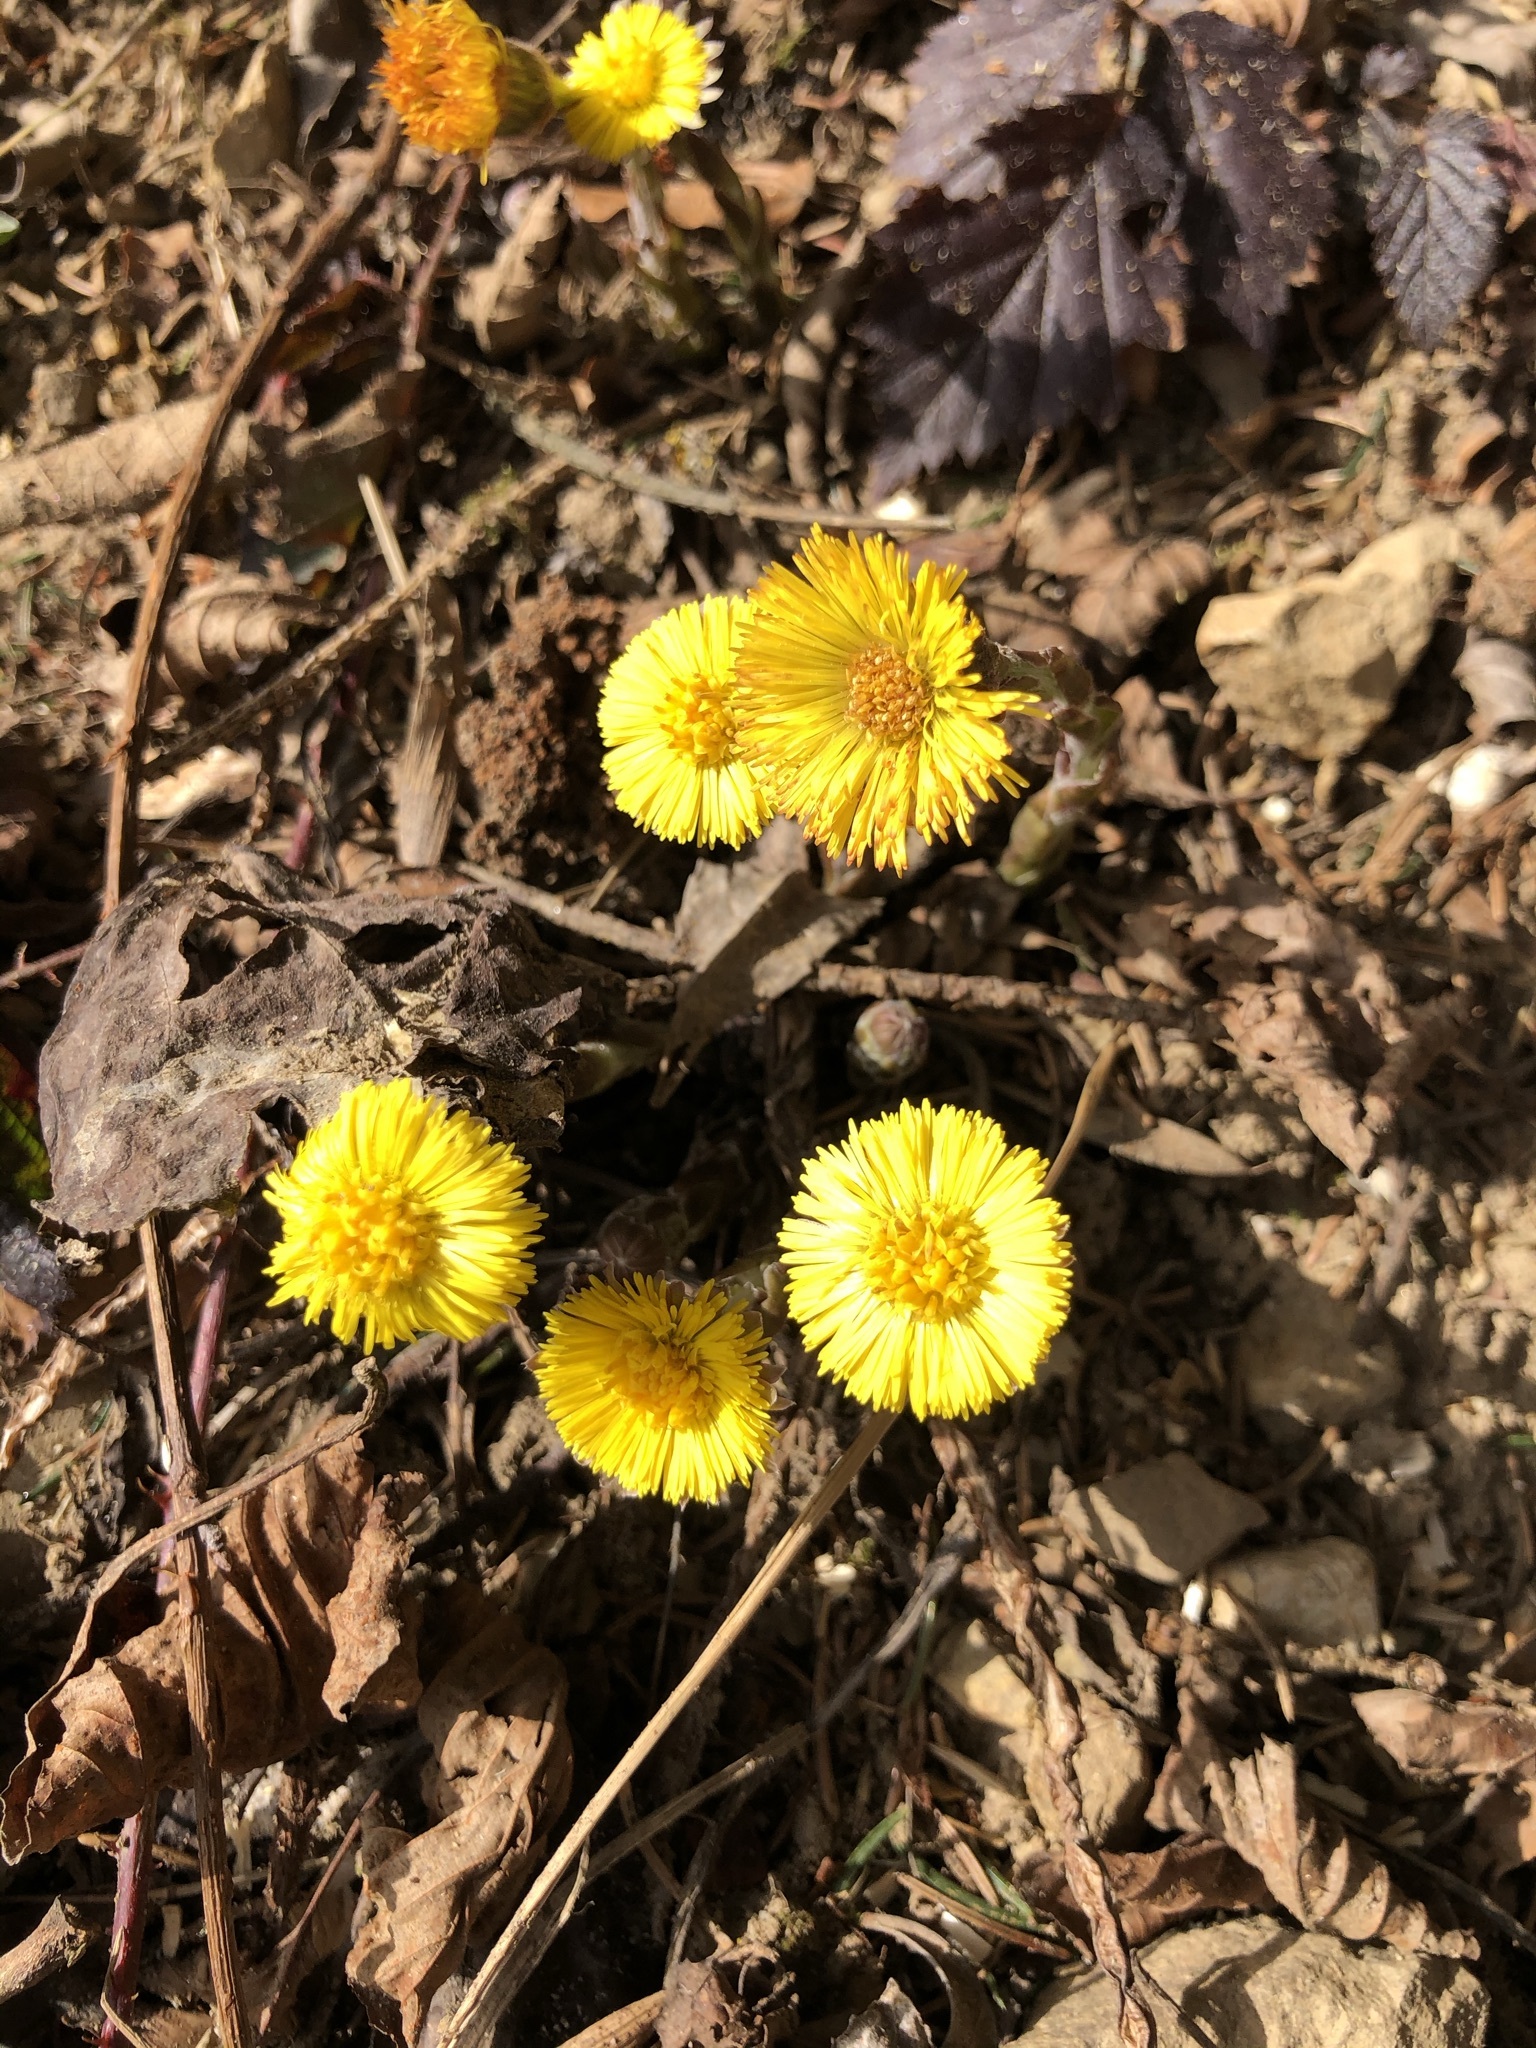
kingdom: Plantae
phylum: Tracheophyta
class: Magnoliopsida
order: Asterales
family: Asteraceae
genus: Tussilago
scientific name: Tussilago farfara
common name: Coltsfoot
